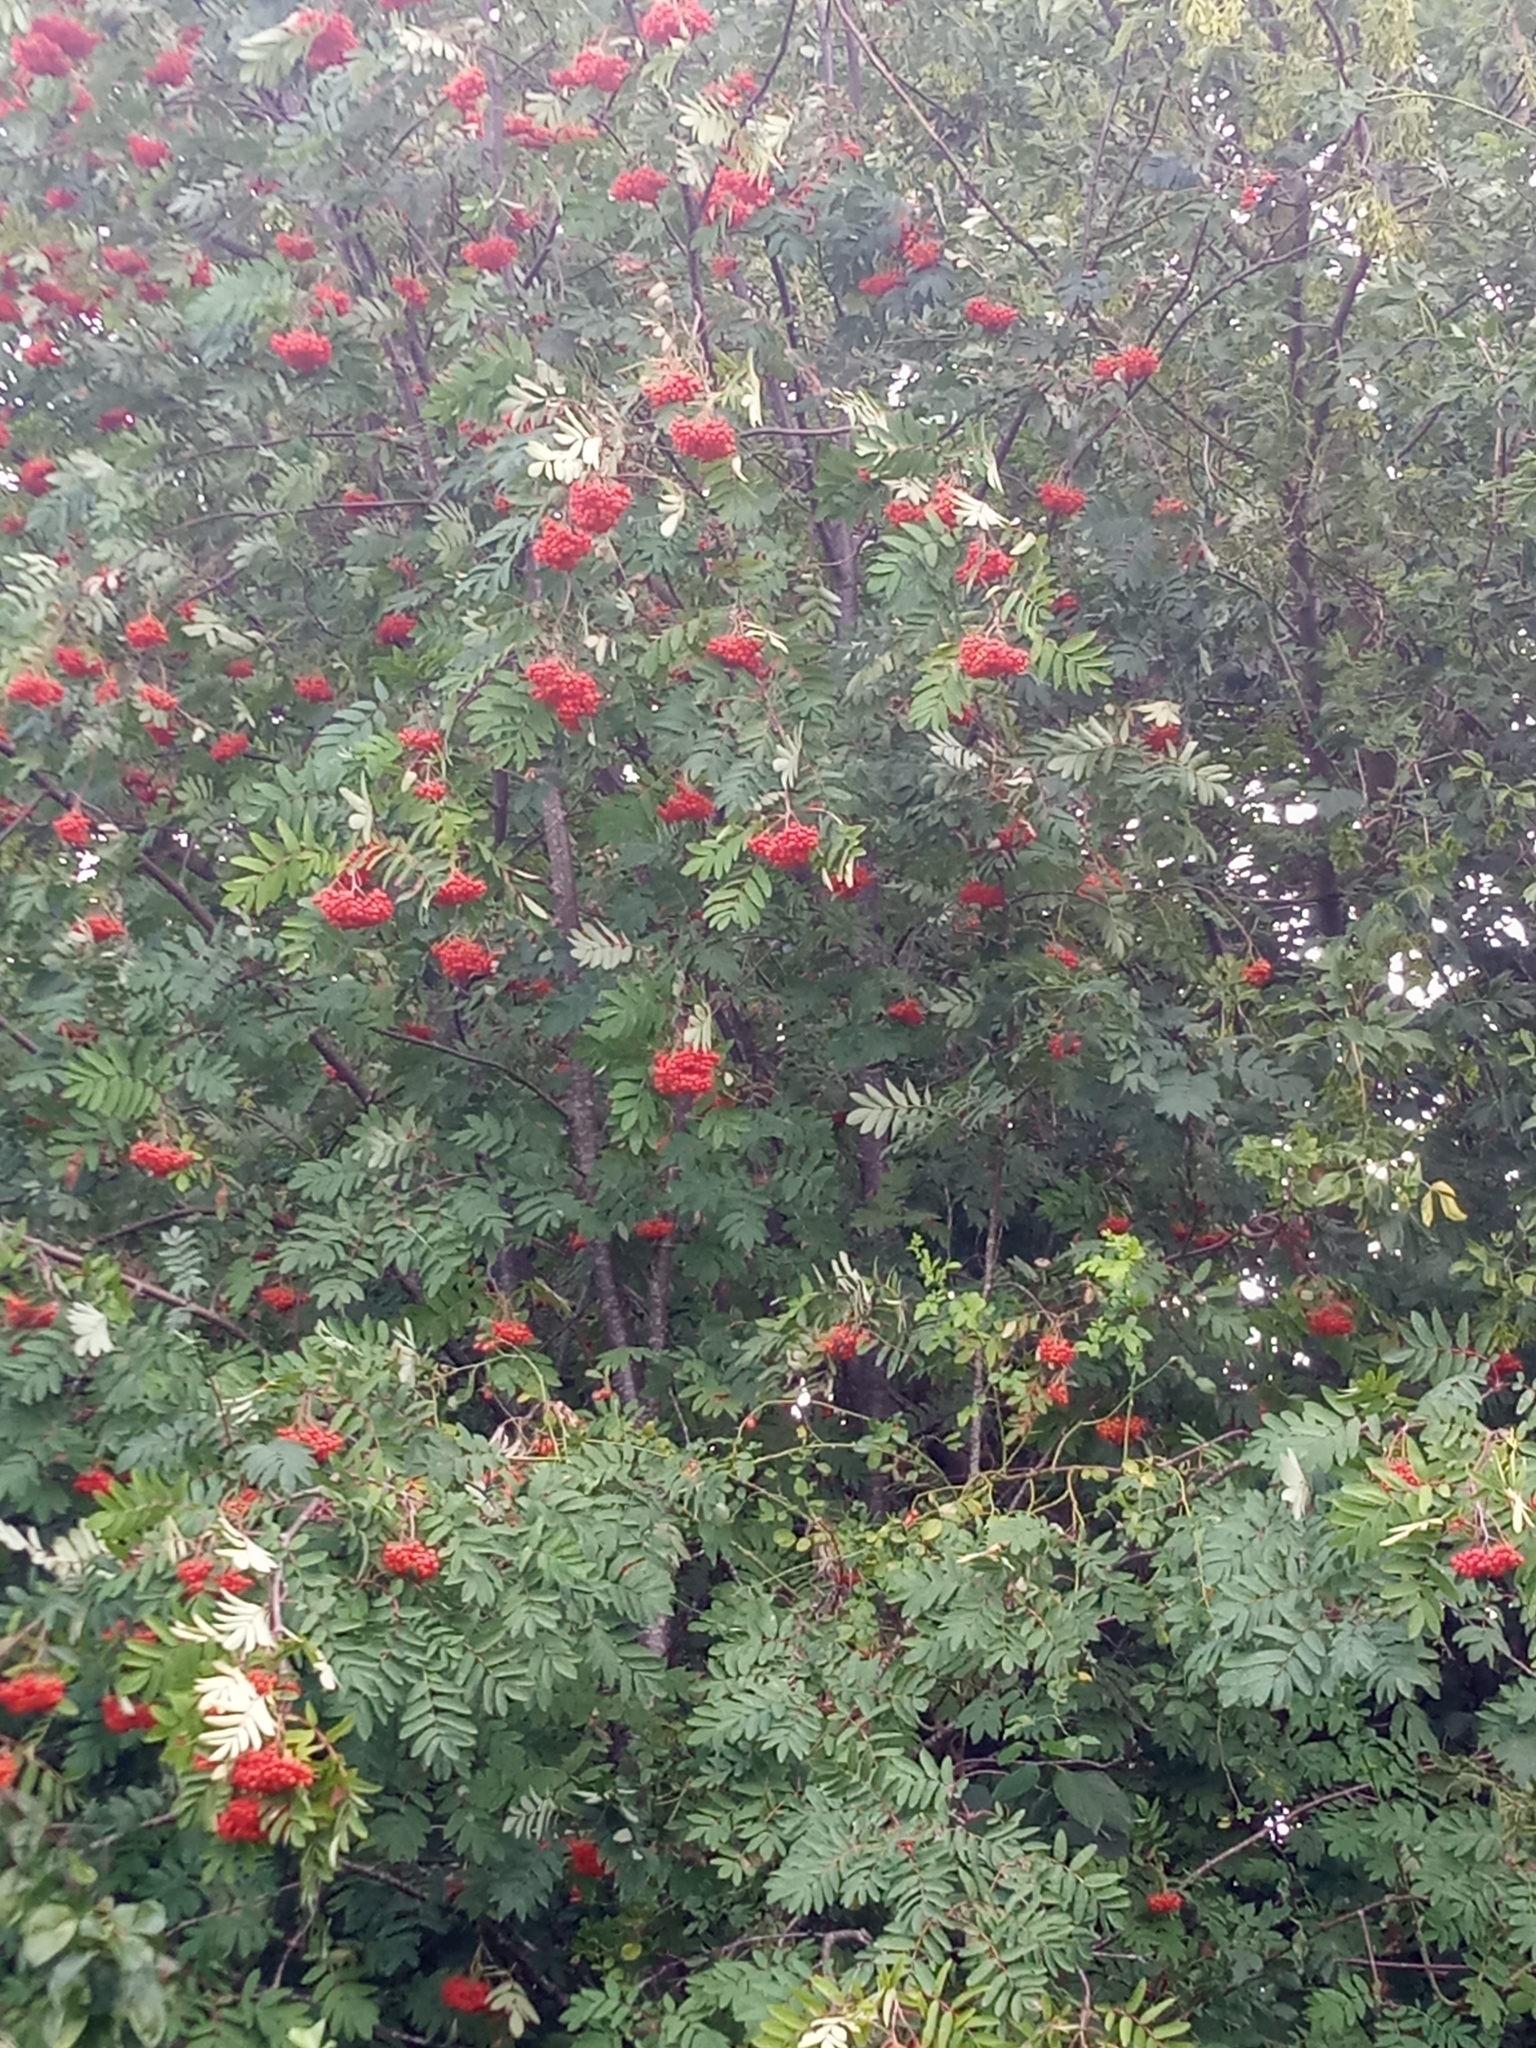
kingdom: Plantae
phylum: Tracheophyta
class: Magnoliopsida
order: Rosales
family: Rosaceae
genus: Sorbus
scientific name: Sorbus aucuparia
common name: Rowan
